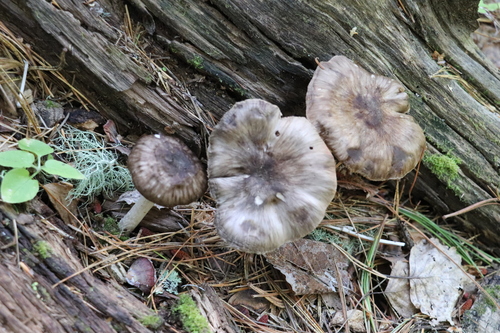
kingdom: Fungi
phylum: Basidiomycota
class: Agaricomycetes
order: Agaricales
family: Pluteaceae
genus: Pluteus
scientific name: Pluteus rangifer
